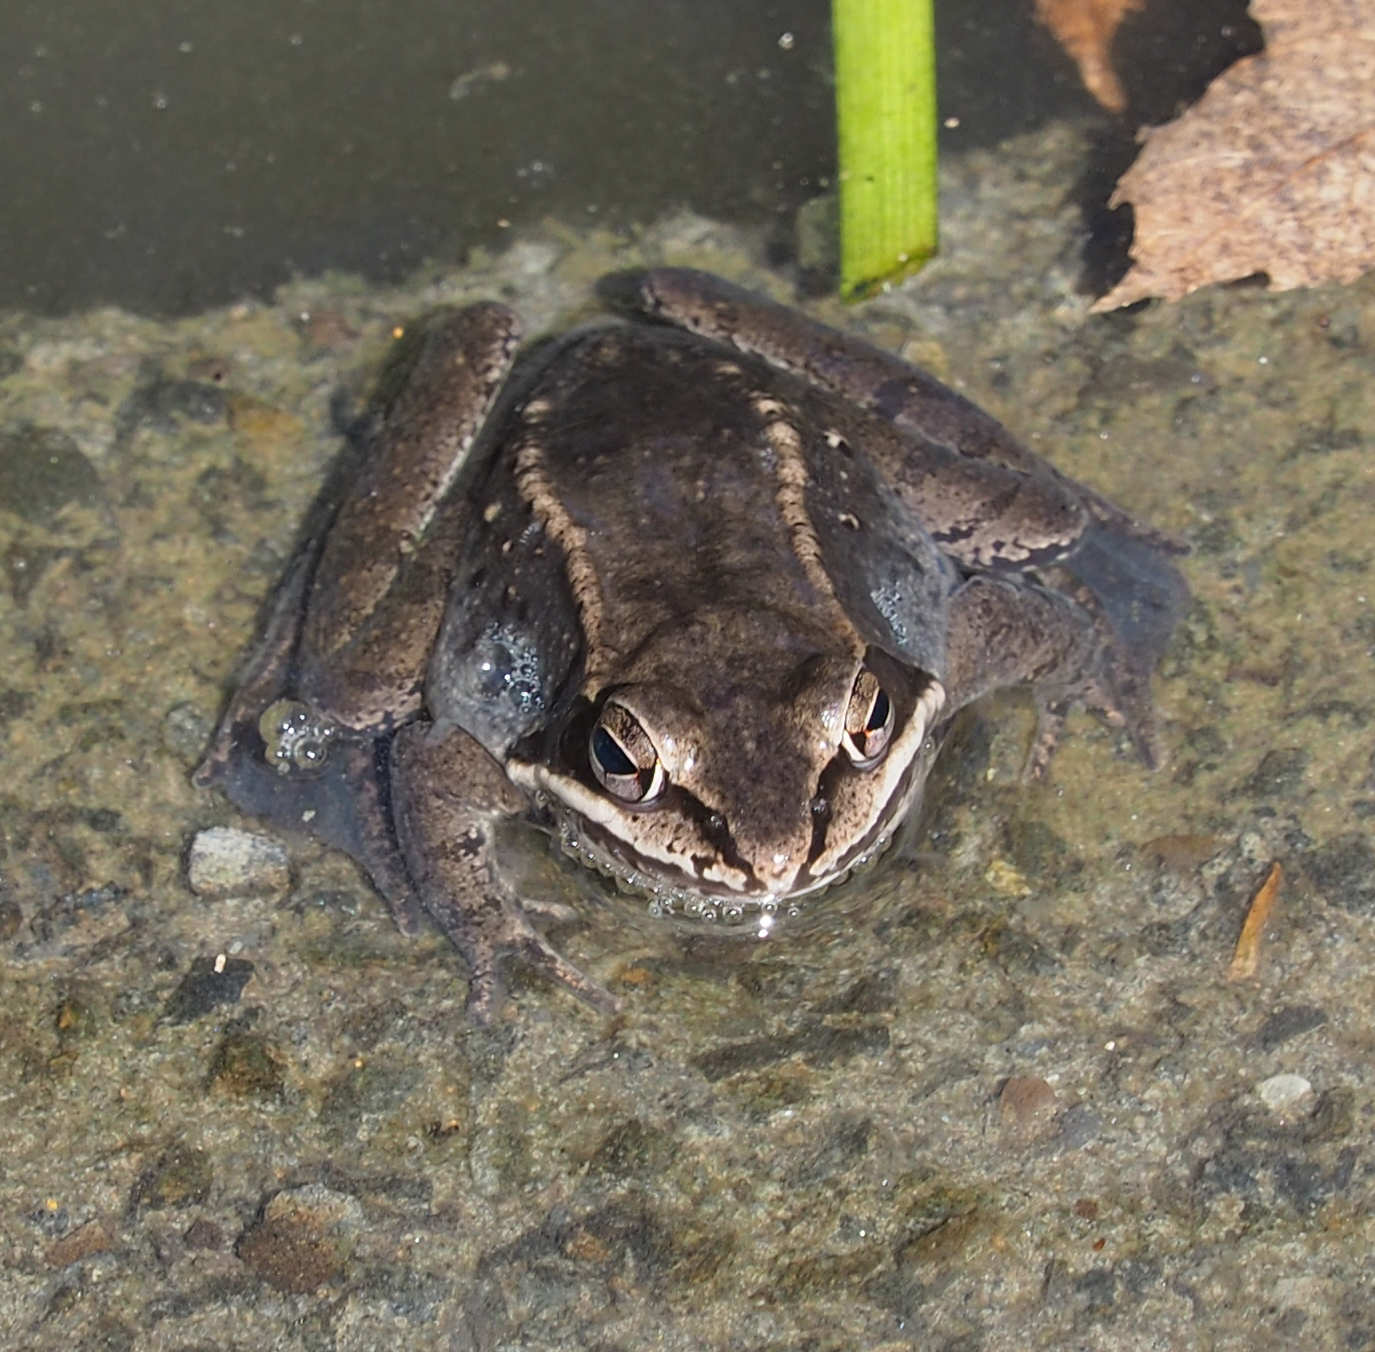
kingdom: Animalia
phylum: Chordata
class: Amphibia
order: Anura
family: Ranidae
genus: Lithobates
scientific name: Lithobates sylvaticus
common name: Wood frog
